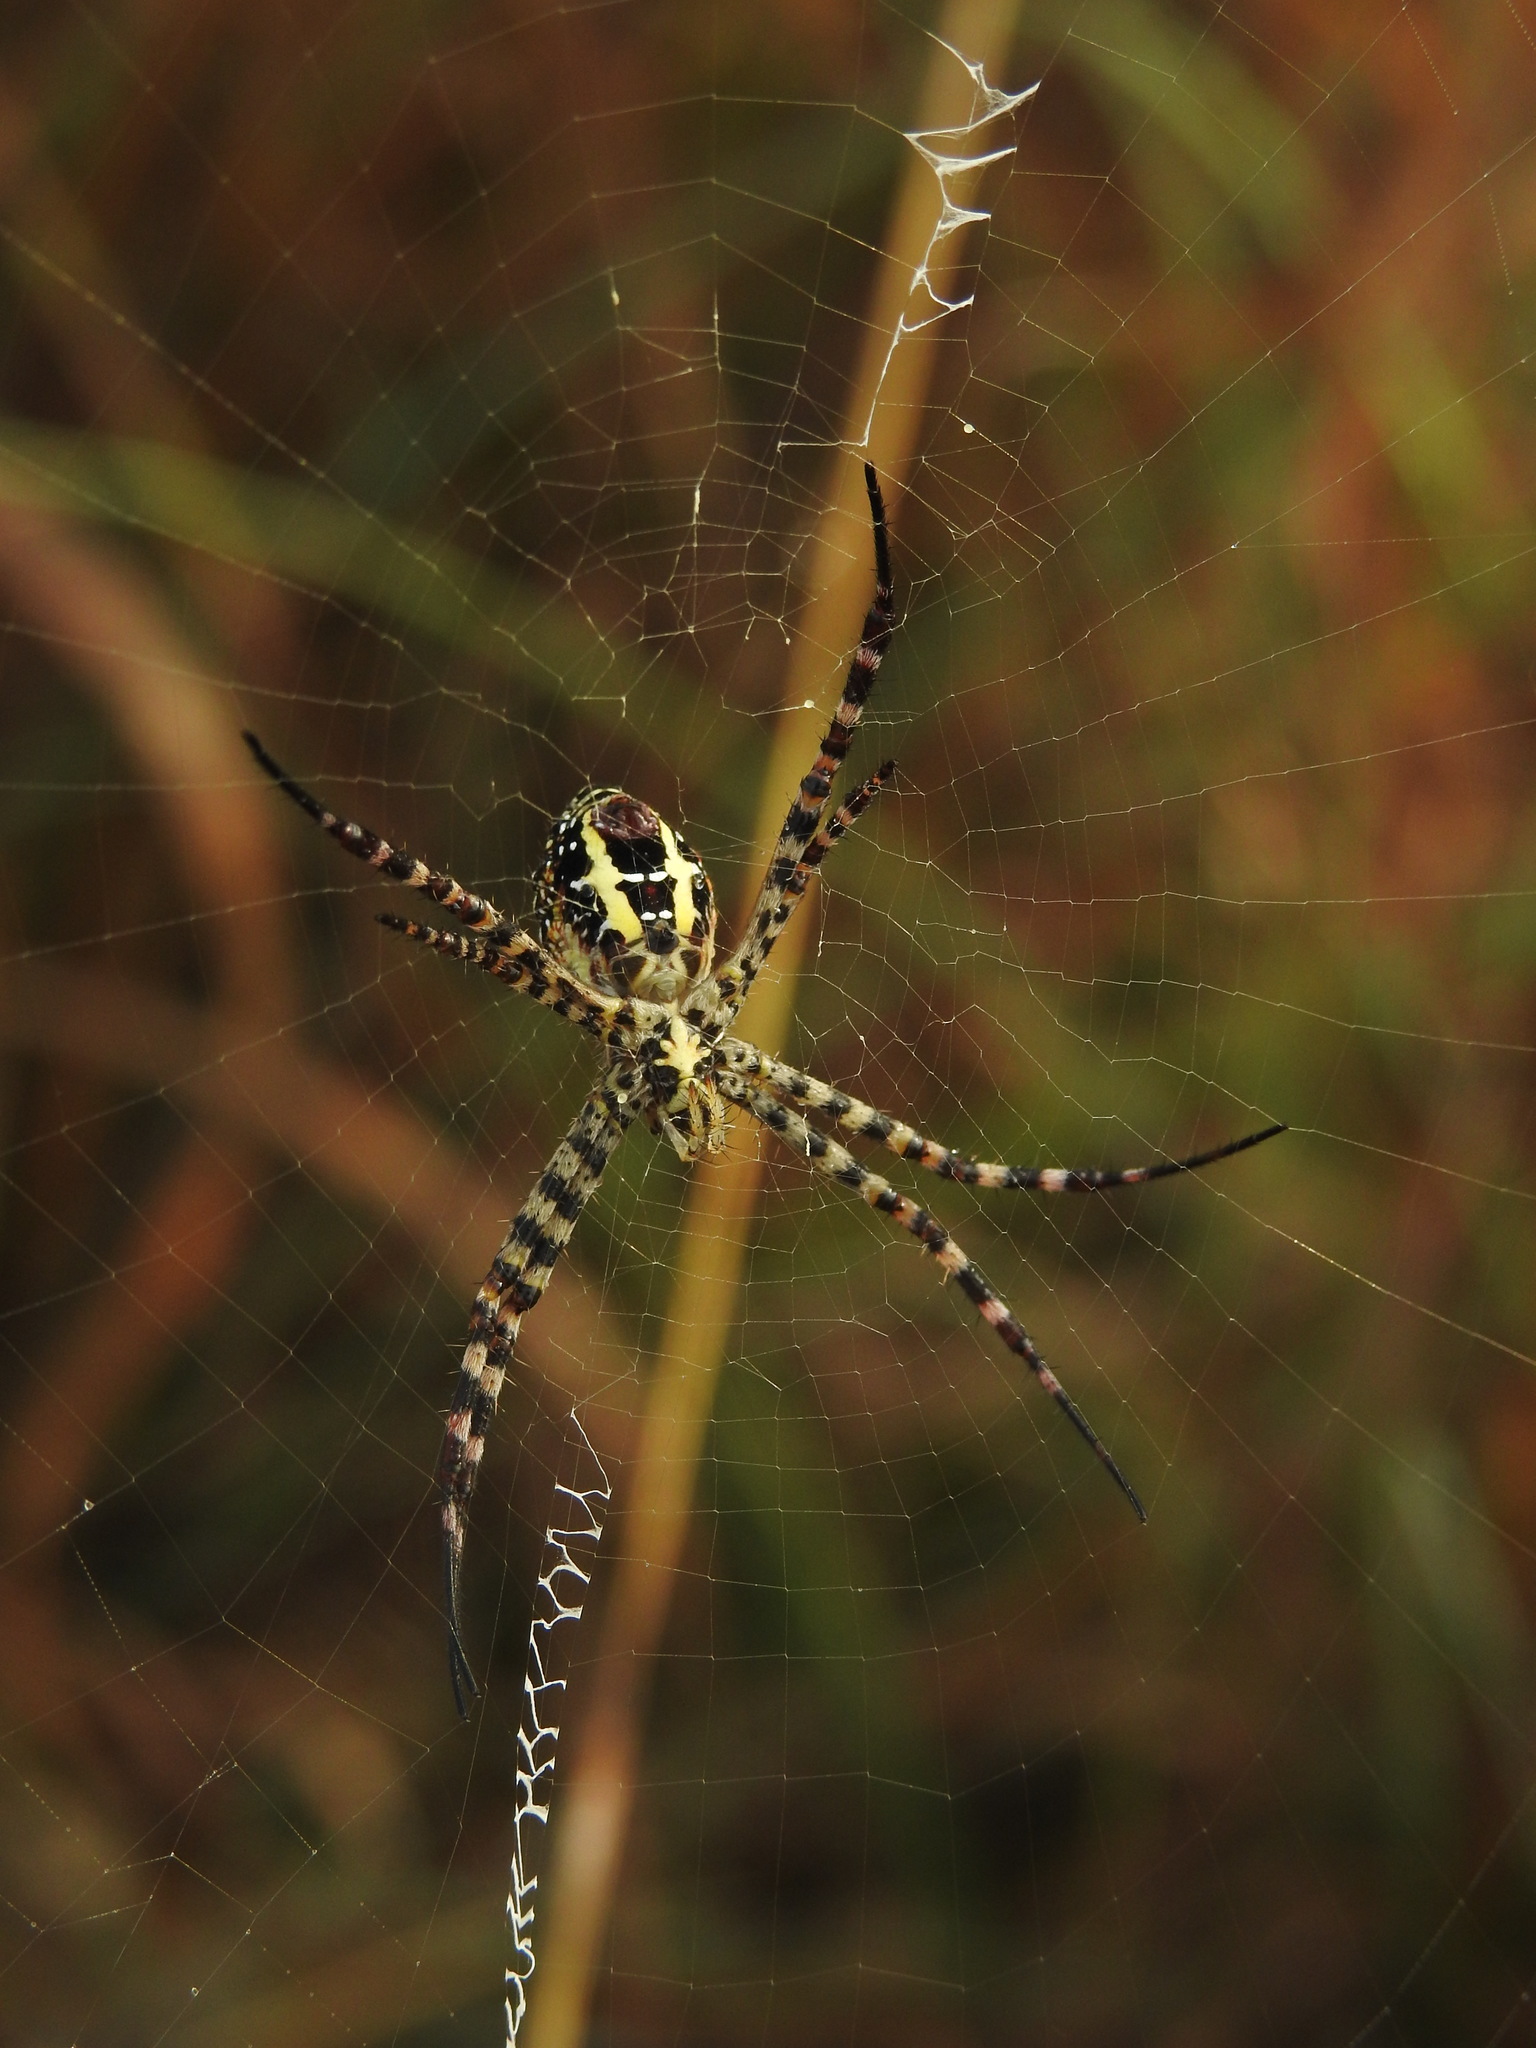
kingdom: Animalia
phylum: Arthropoda
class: Arachnida
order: Araneae
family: Araneidae
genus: Argiope
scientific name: Argiope aemula
